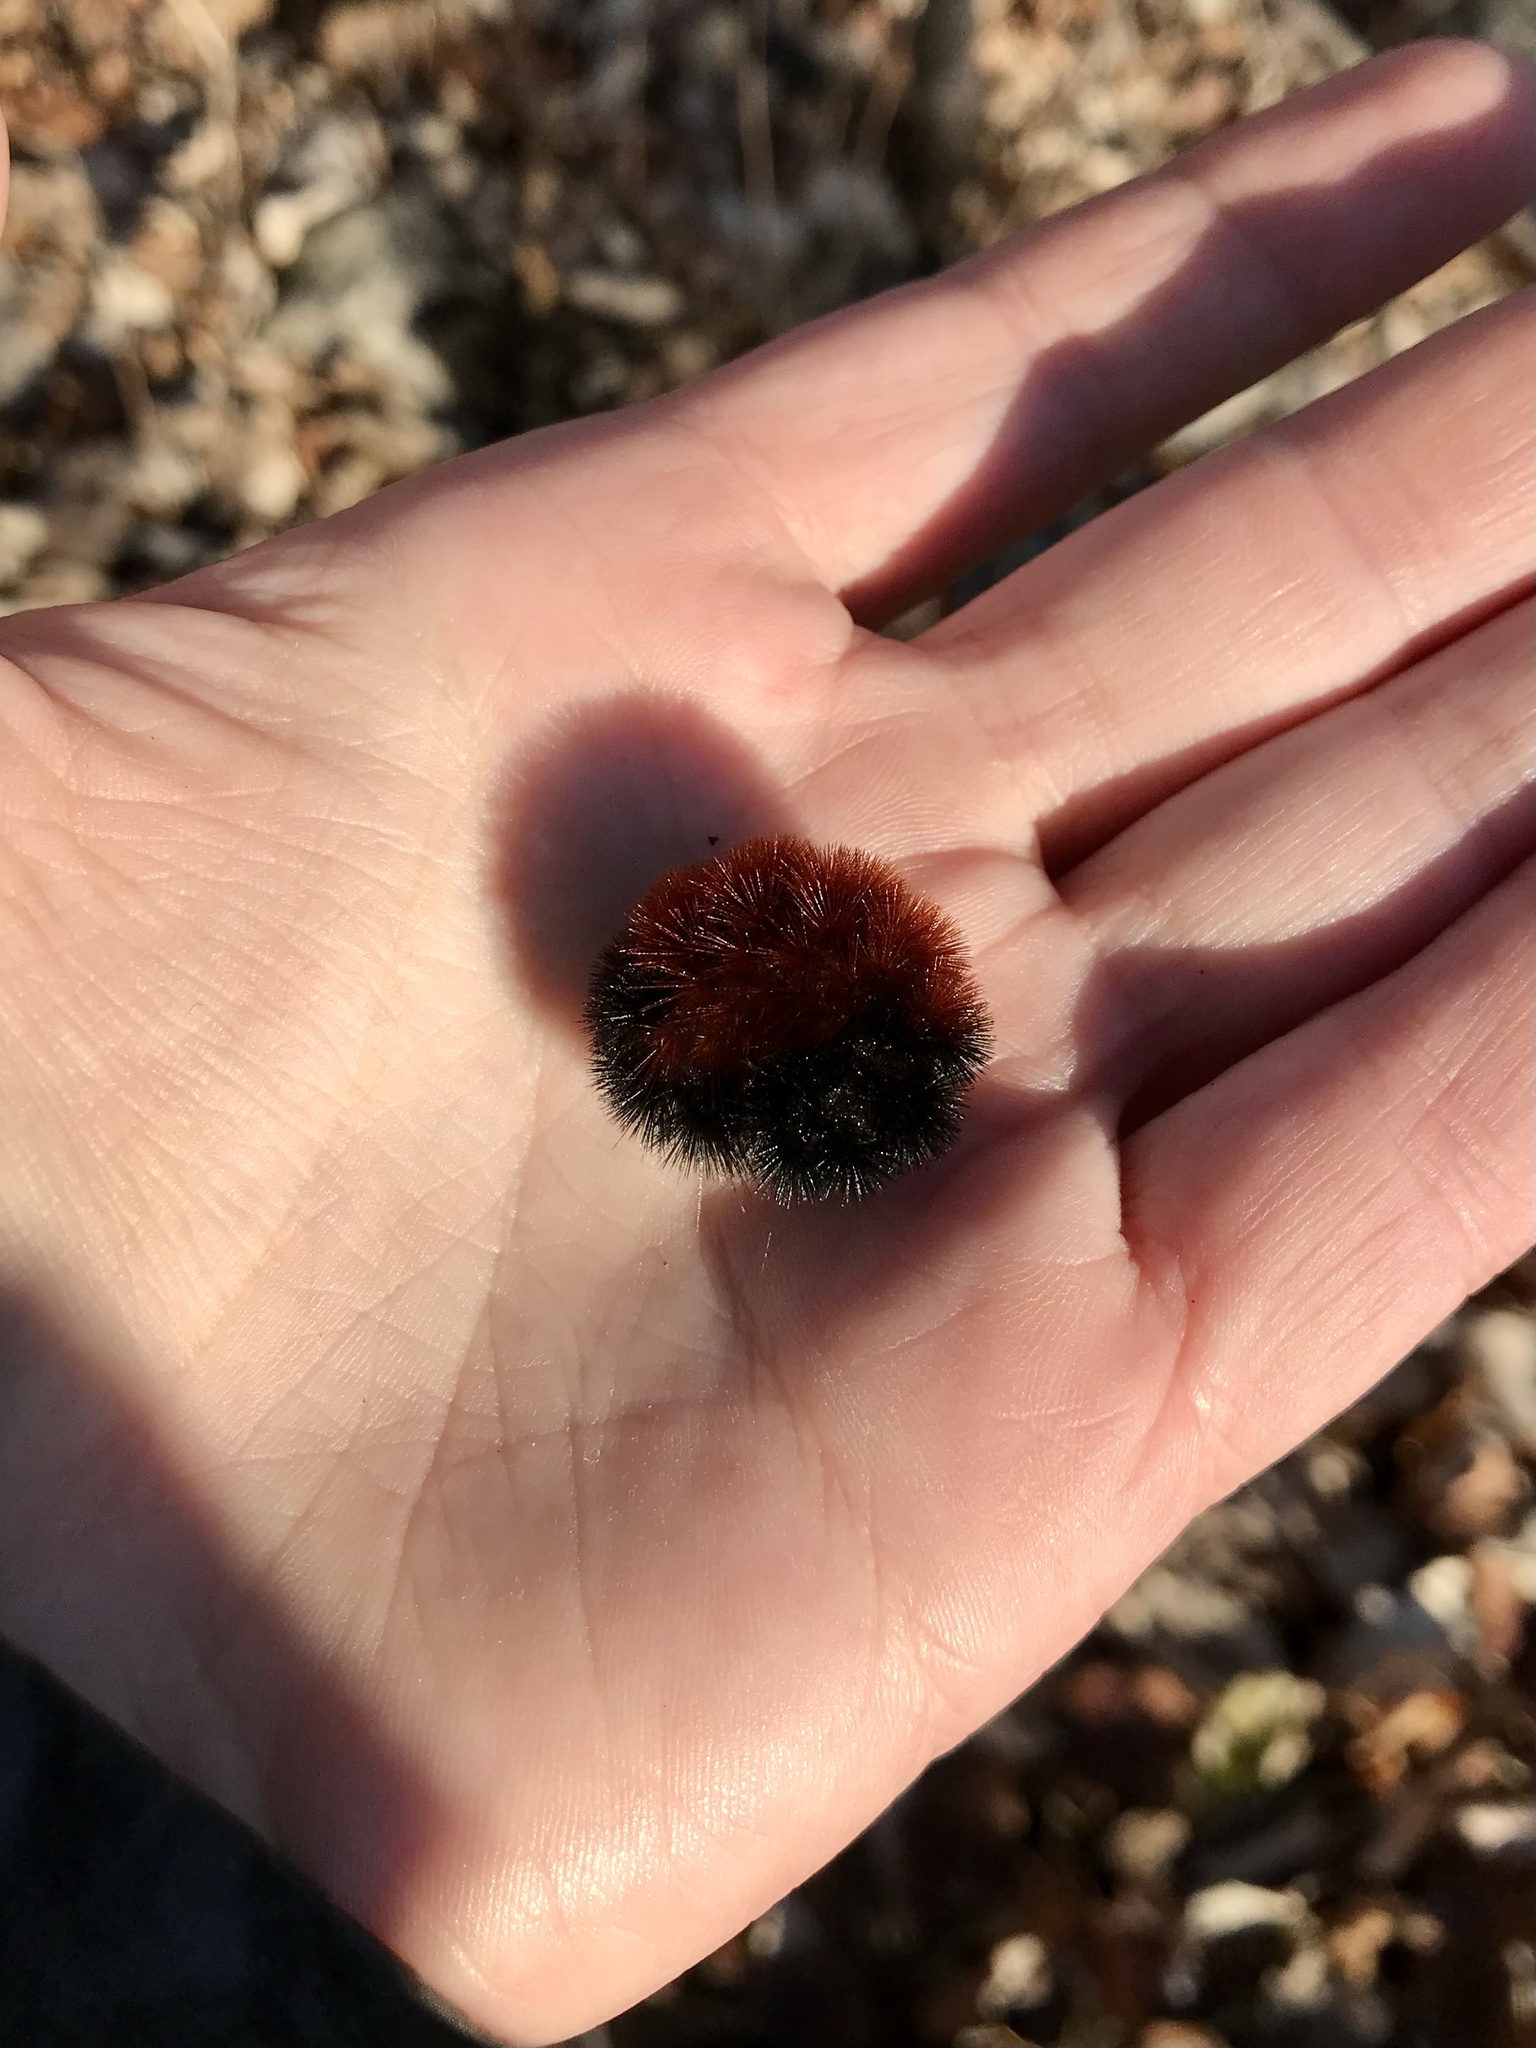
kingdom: Animalia
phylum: Arthropoda
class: Insecta
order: Lepidoptera
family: Erebidae
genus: Pyrrharctia
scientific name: Pyrrharctia isabella
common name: Isabella tiger moth
